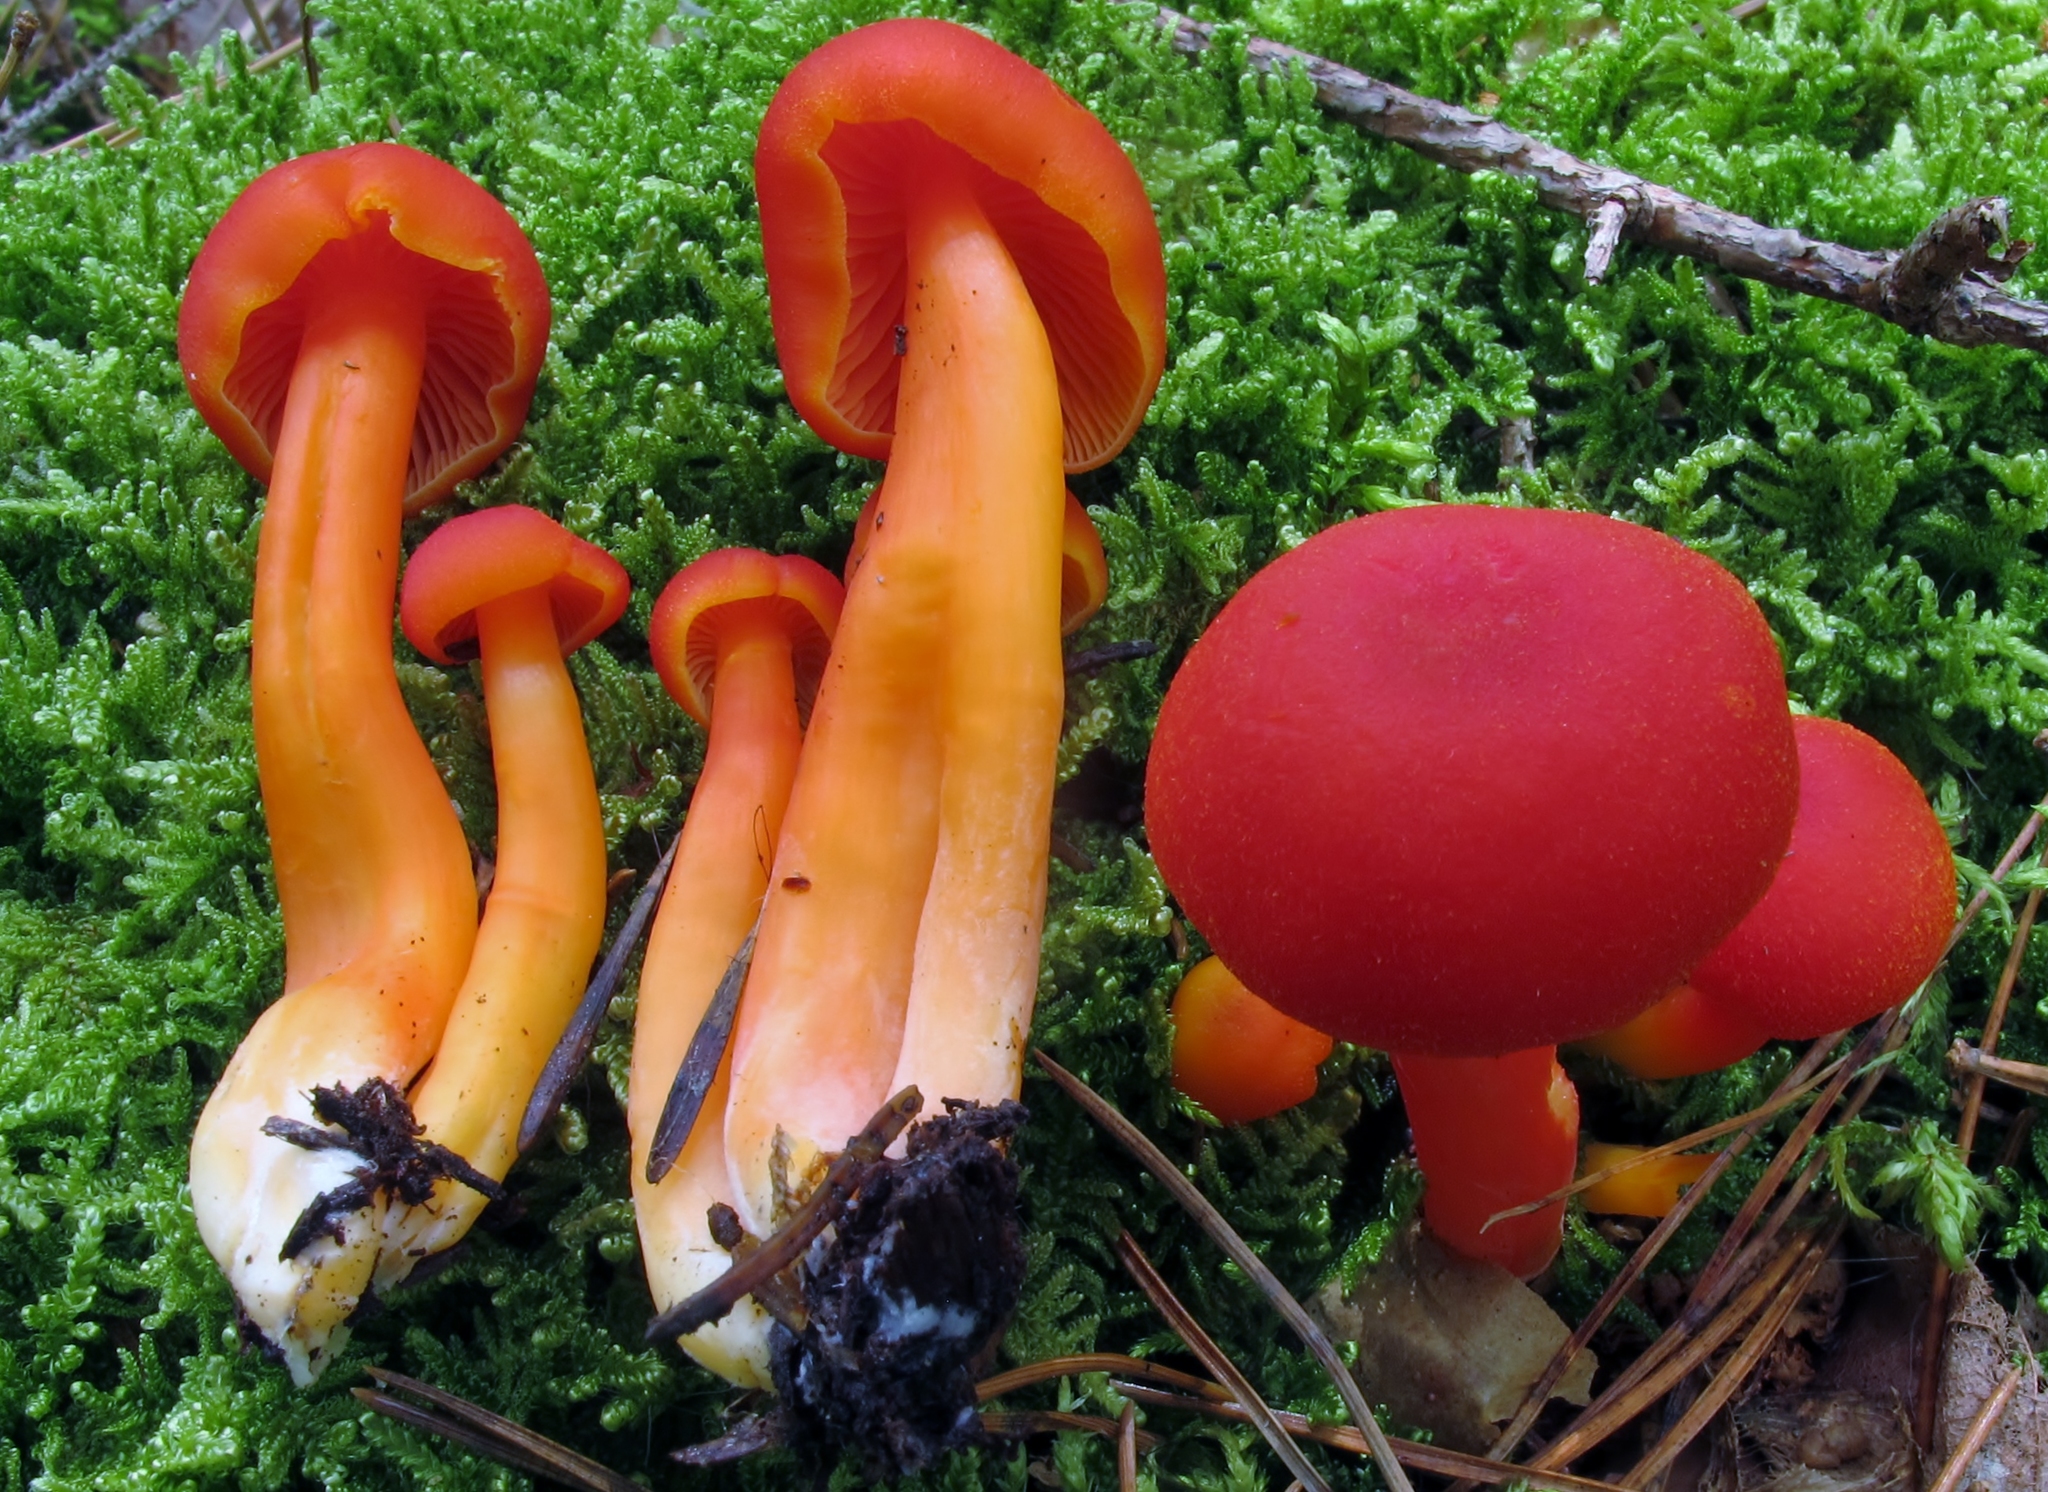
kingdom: Fungi
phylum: Basidiomycota
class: Agaricomycetes
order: Agaricales
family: Hygrophoraceae
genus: Hygrocybe
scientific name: Hygrocybe miniata
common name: Vermilion waxcap
